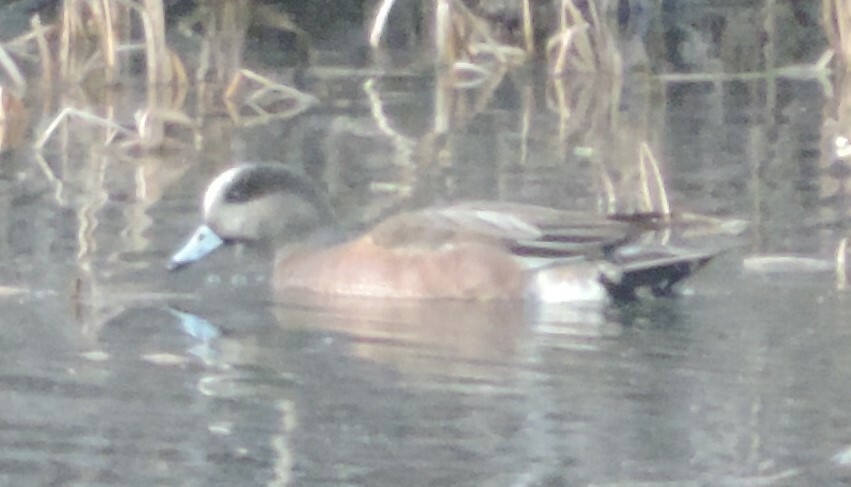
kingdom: Animalia
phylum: Chordata
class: Aves
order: Anseriformes
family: Anatidae
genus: Mareca
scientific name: Mareca americana
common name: American wigeon
